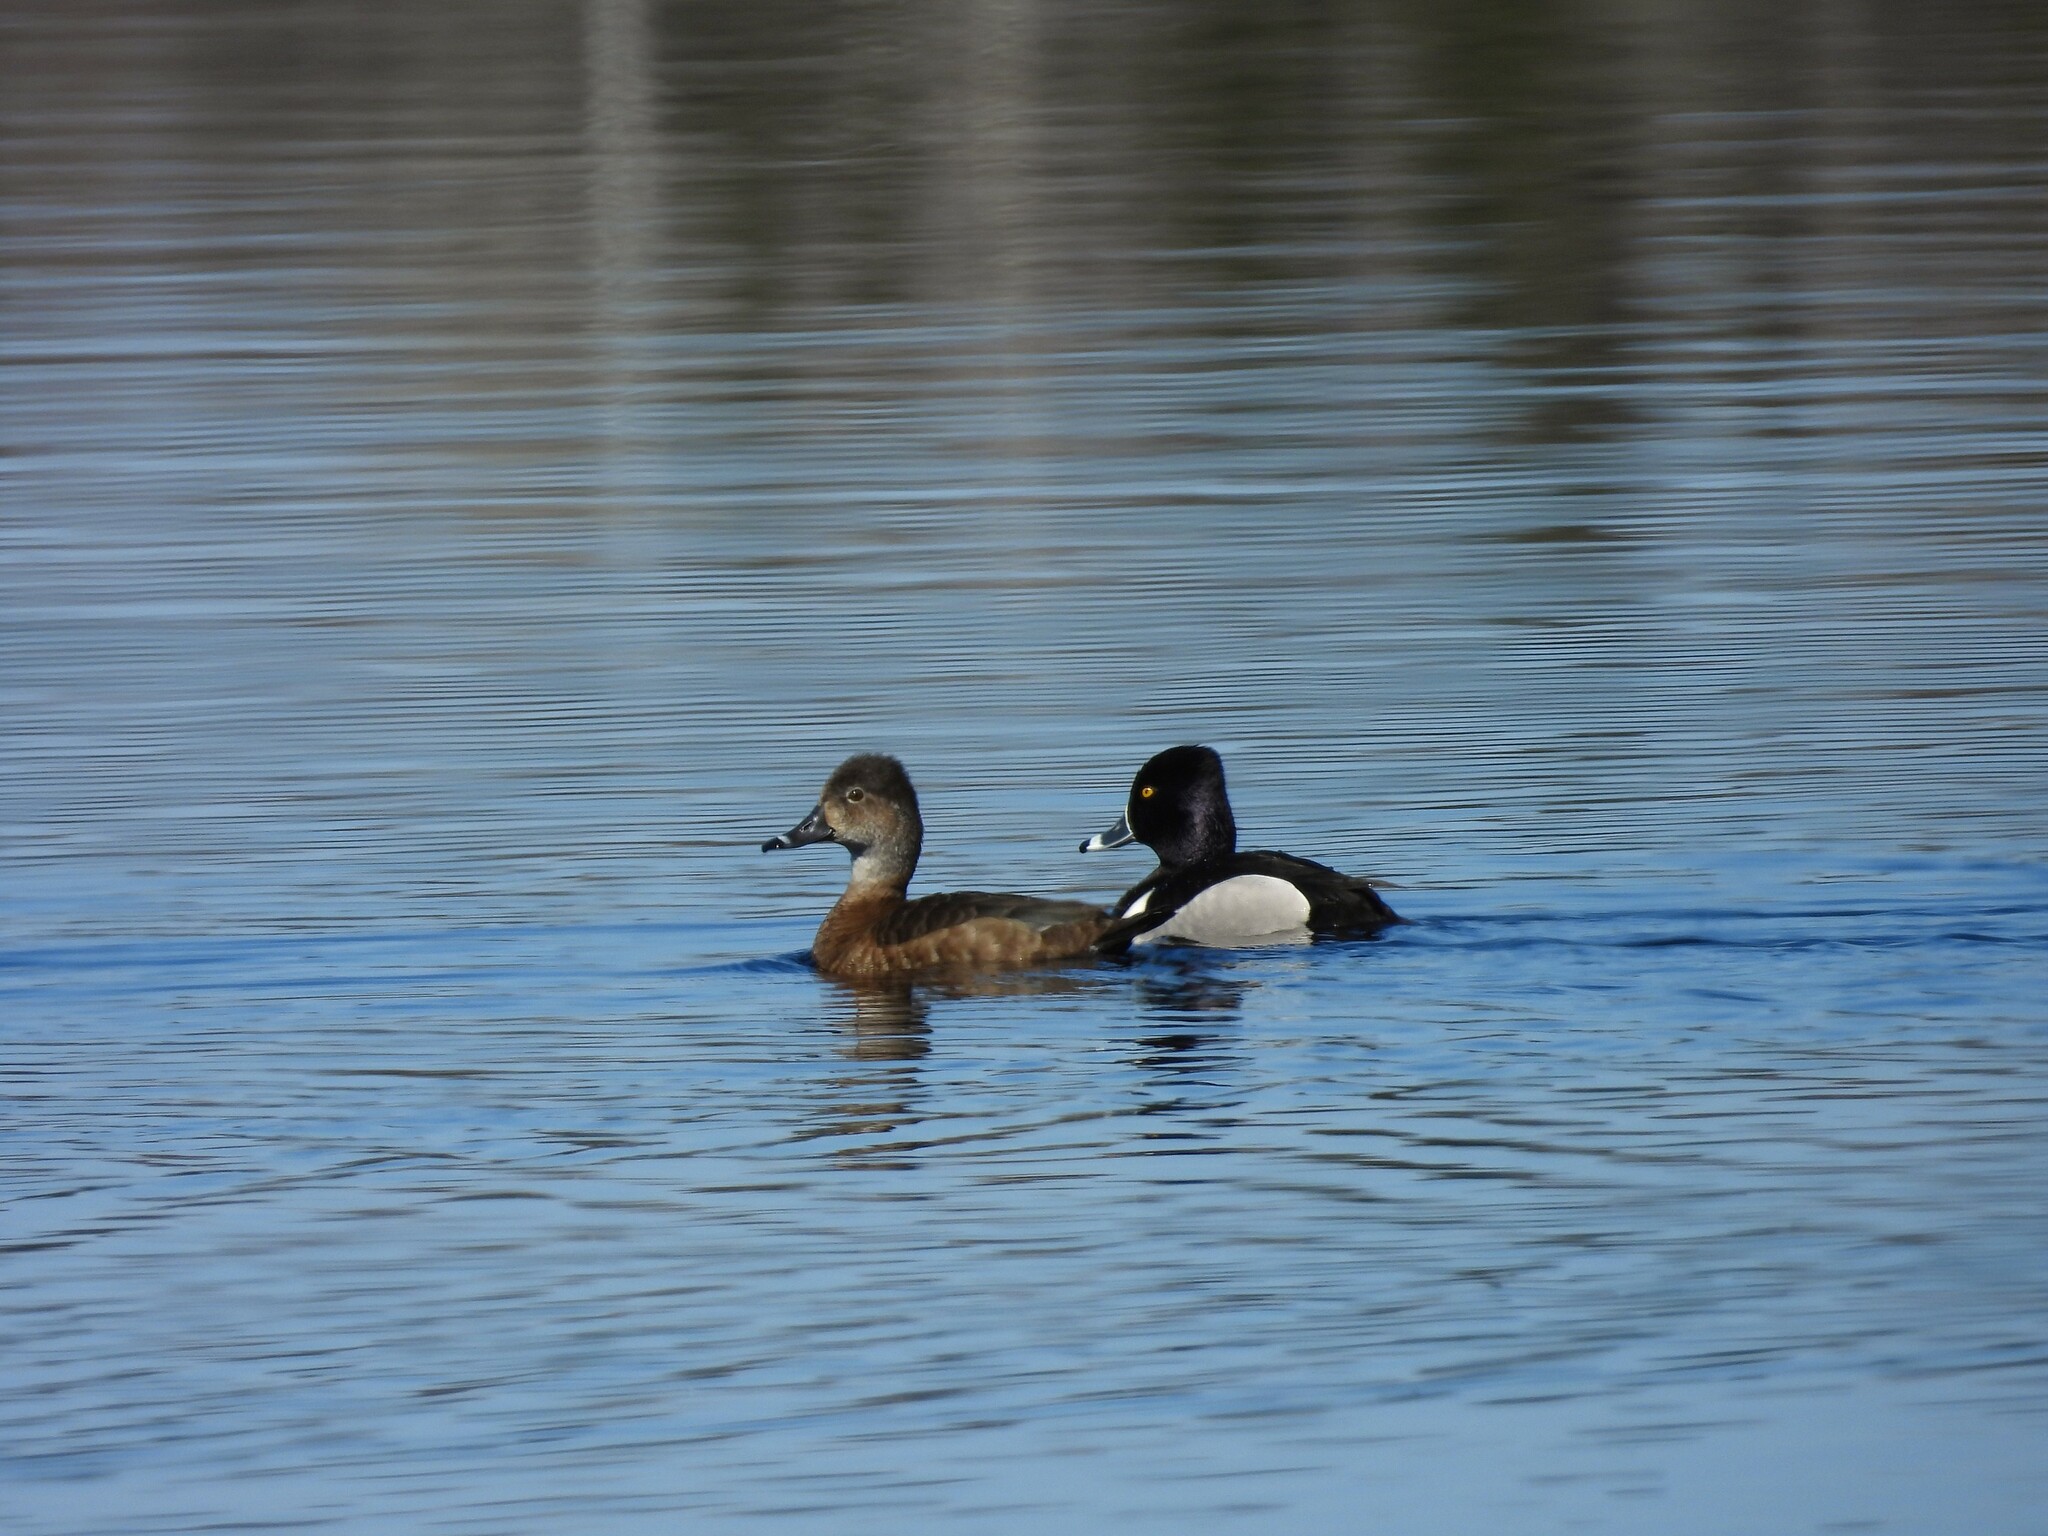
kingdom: Animalia
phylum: Chordata
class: Aves
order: Anseriformes
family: Anatidae
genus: Aythya
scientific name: Aythya collaris
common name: Ring-necked duck
